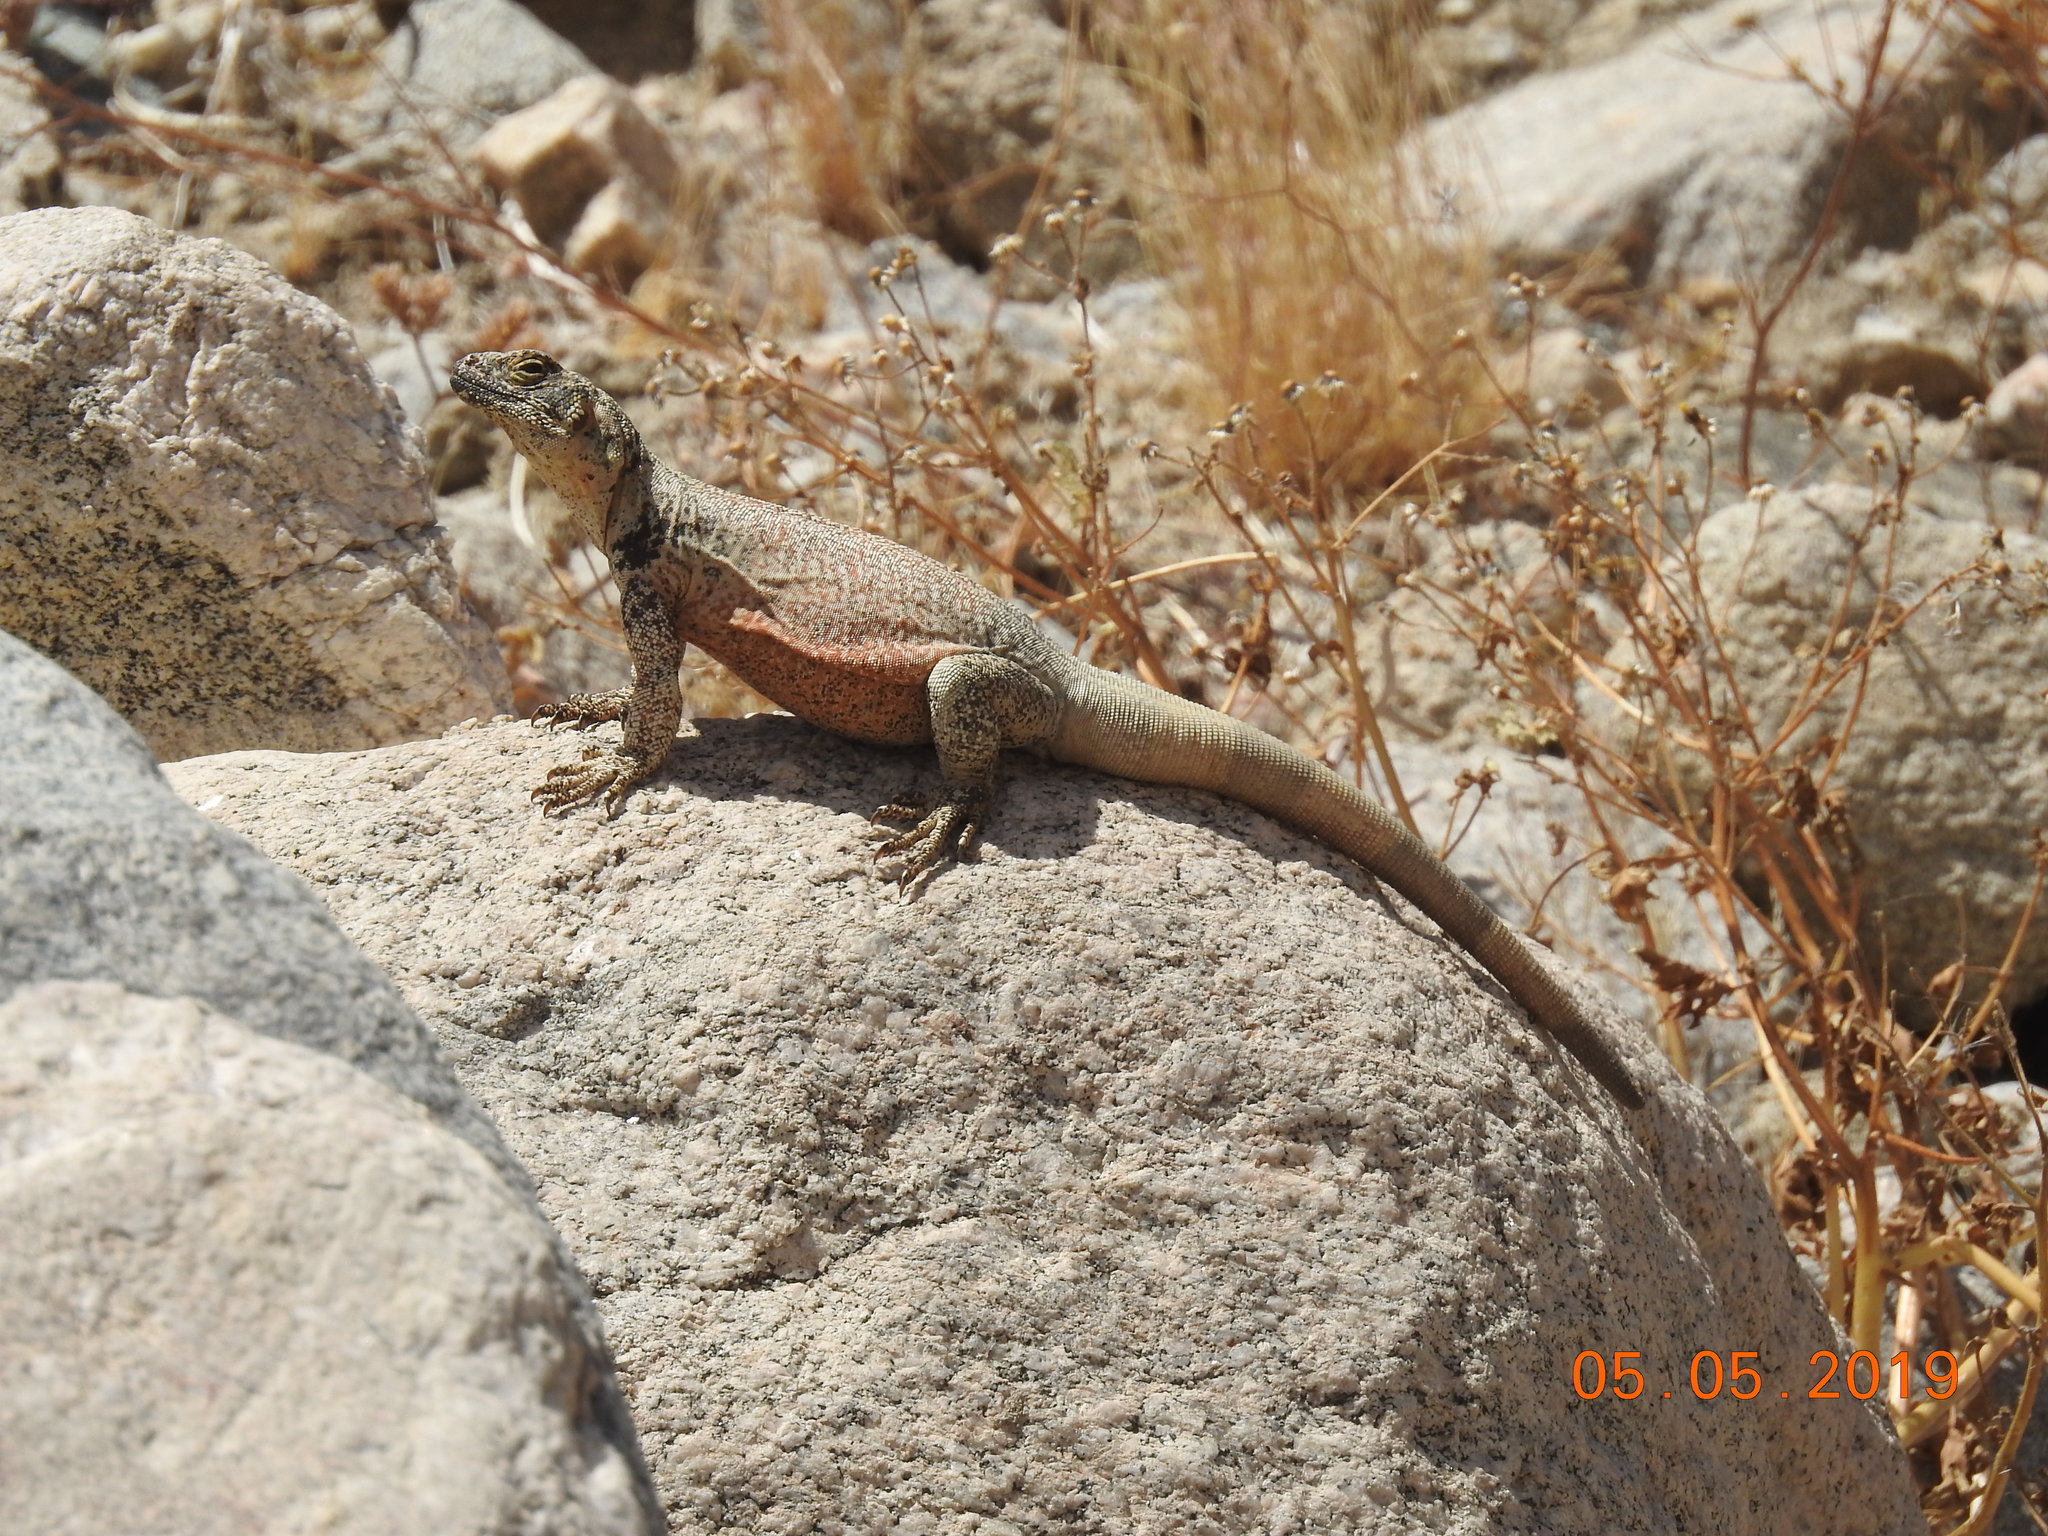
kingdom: Animalia
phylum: Chordata
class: Squamata
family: Iguanidae
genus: Sauromalus
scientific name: Sauromalus ater
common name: Northern chuckwalla
